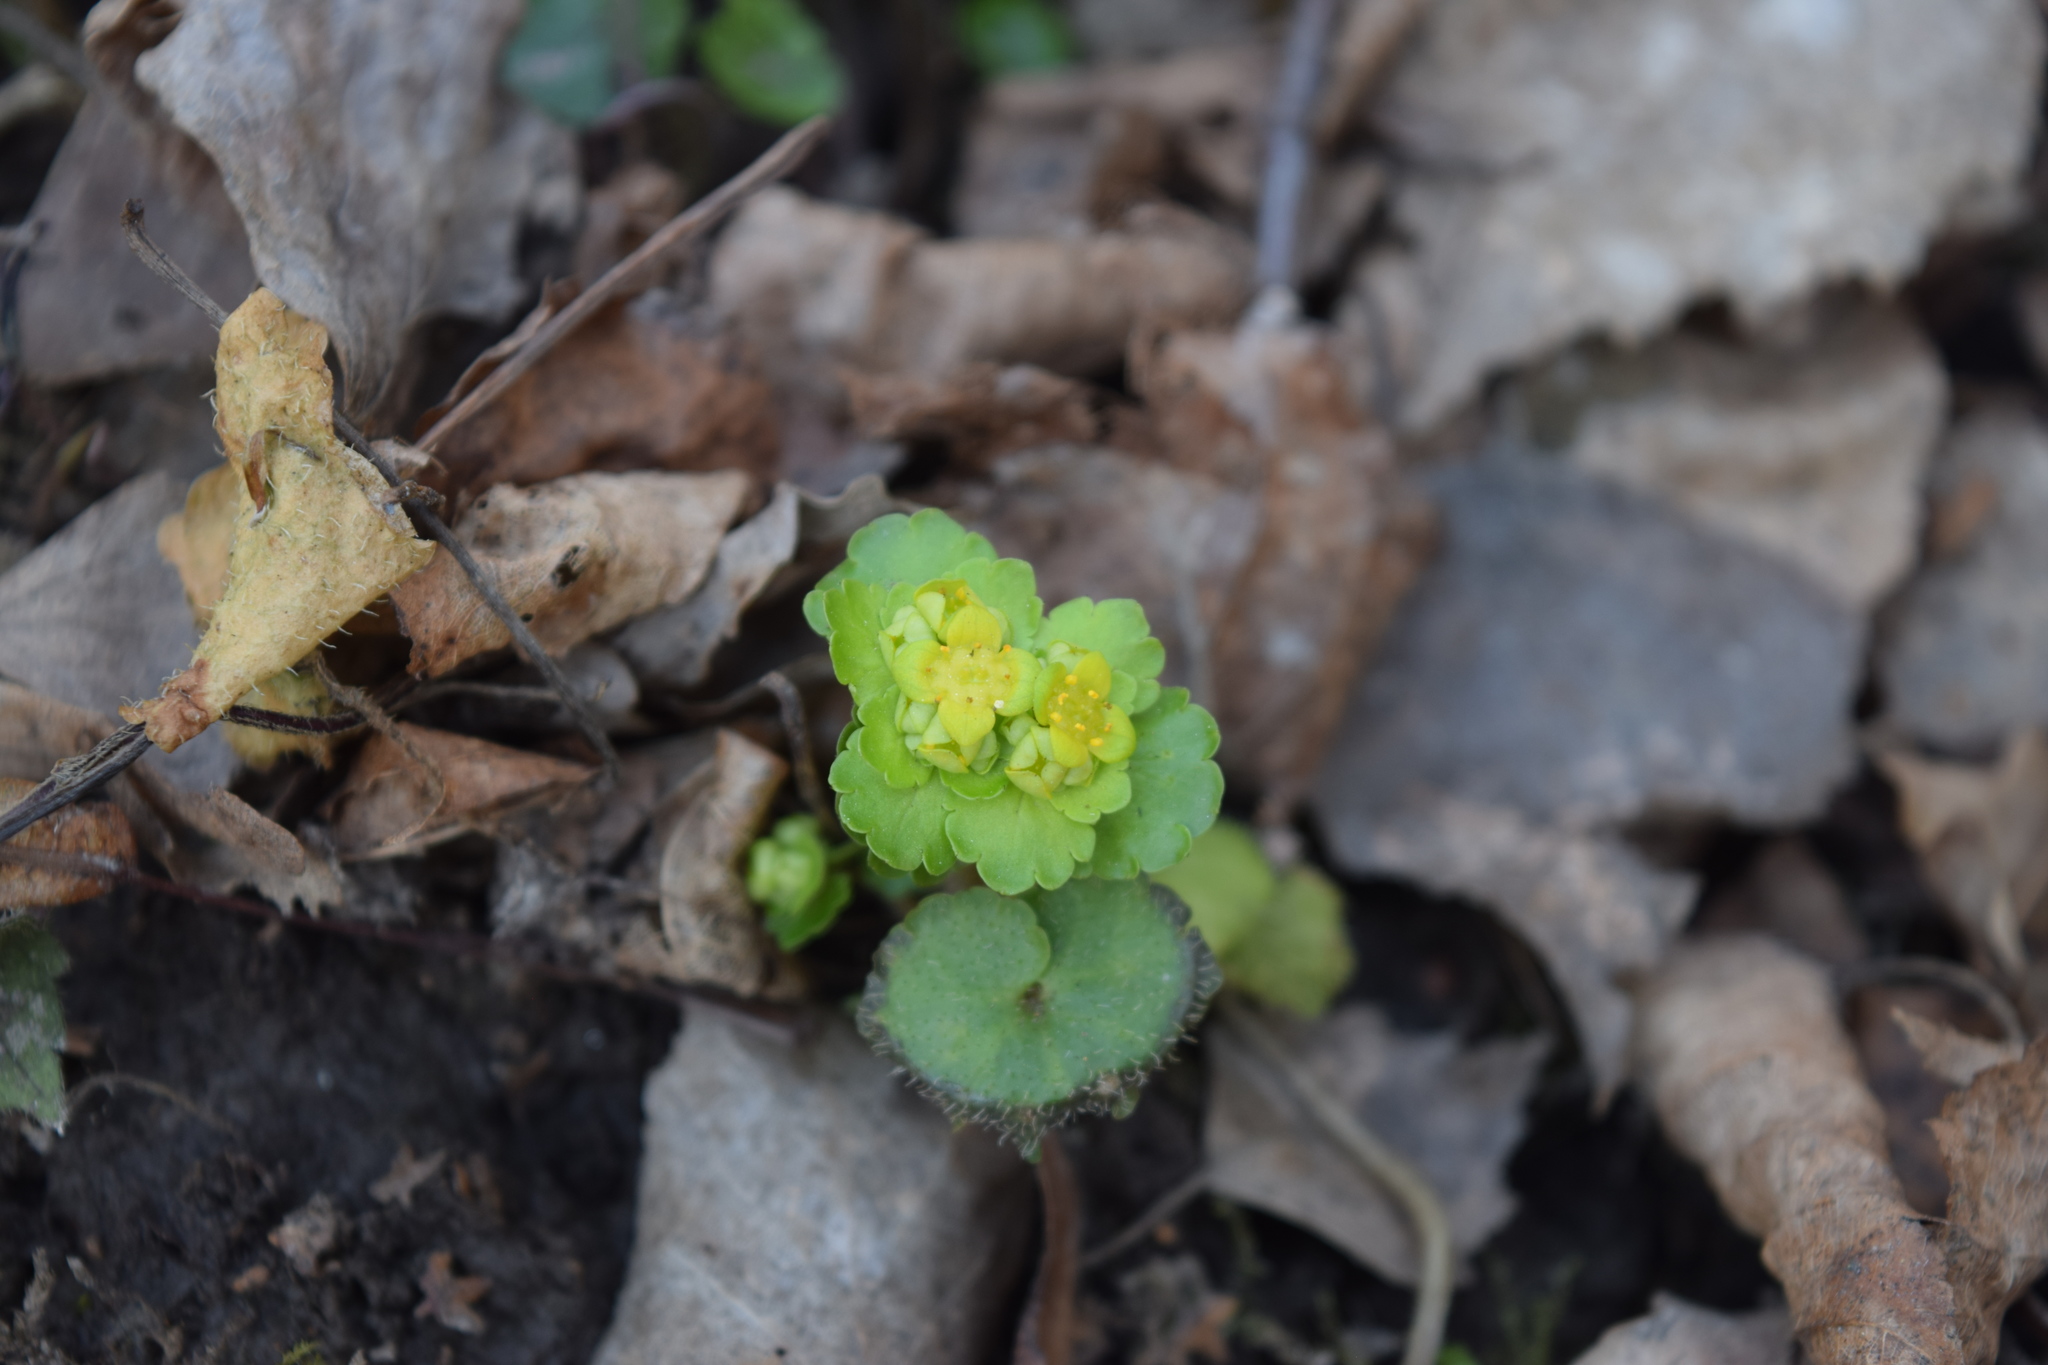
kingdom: Plantae
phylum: Tracheophyta
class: Magnoliopsida
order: Saxifragales
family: Saxifragaceae
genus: Chrysosplenium
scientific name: Chrysosplenium alternifolium
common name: Alternate-leaved golden-saxifrage
